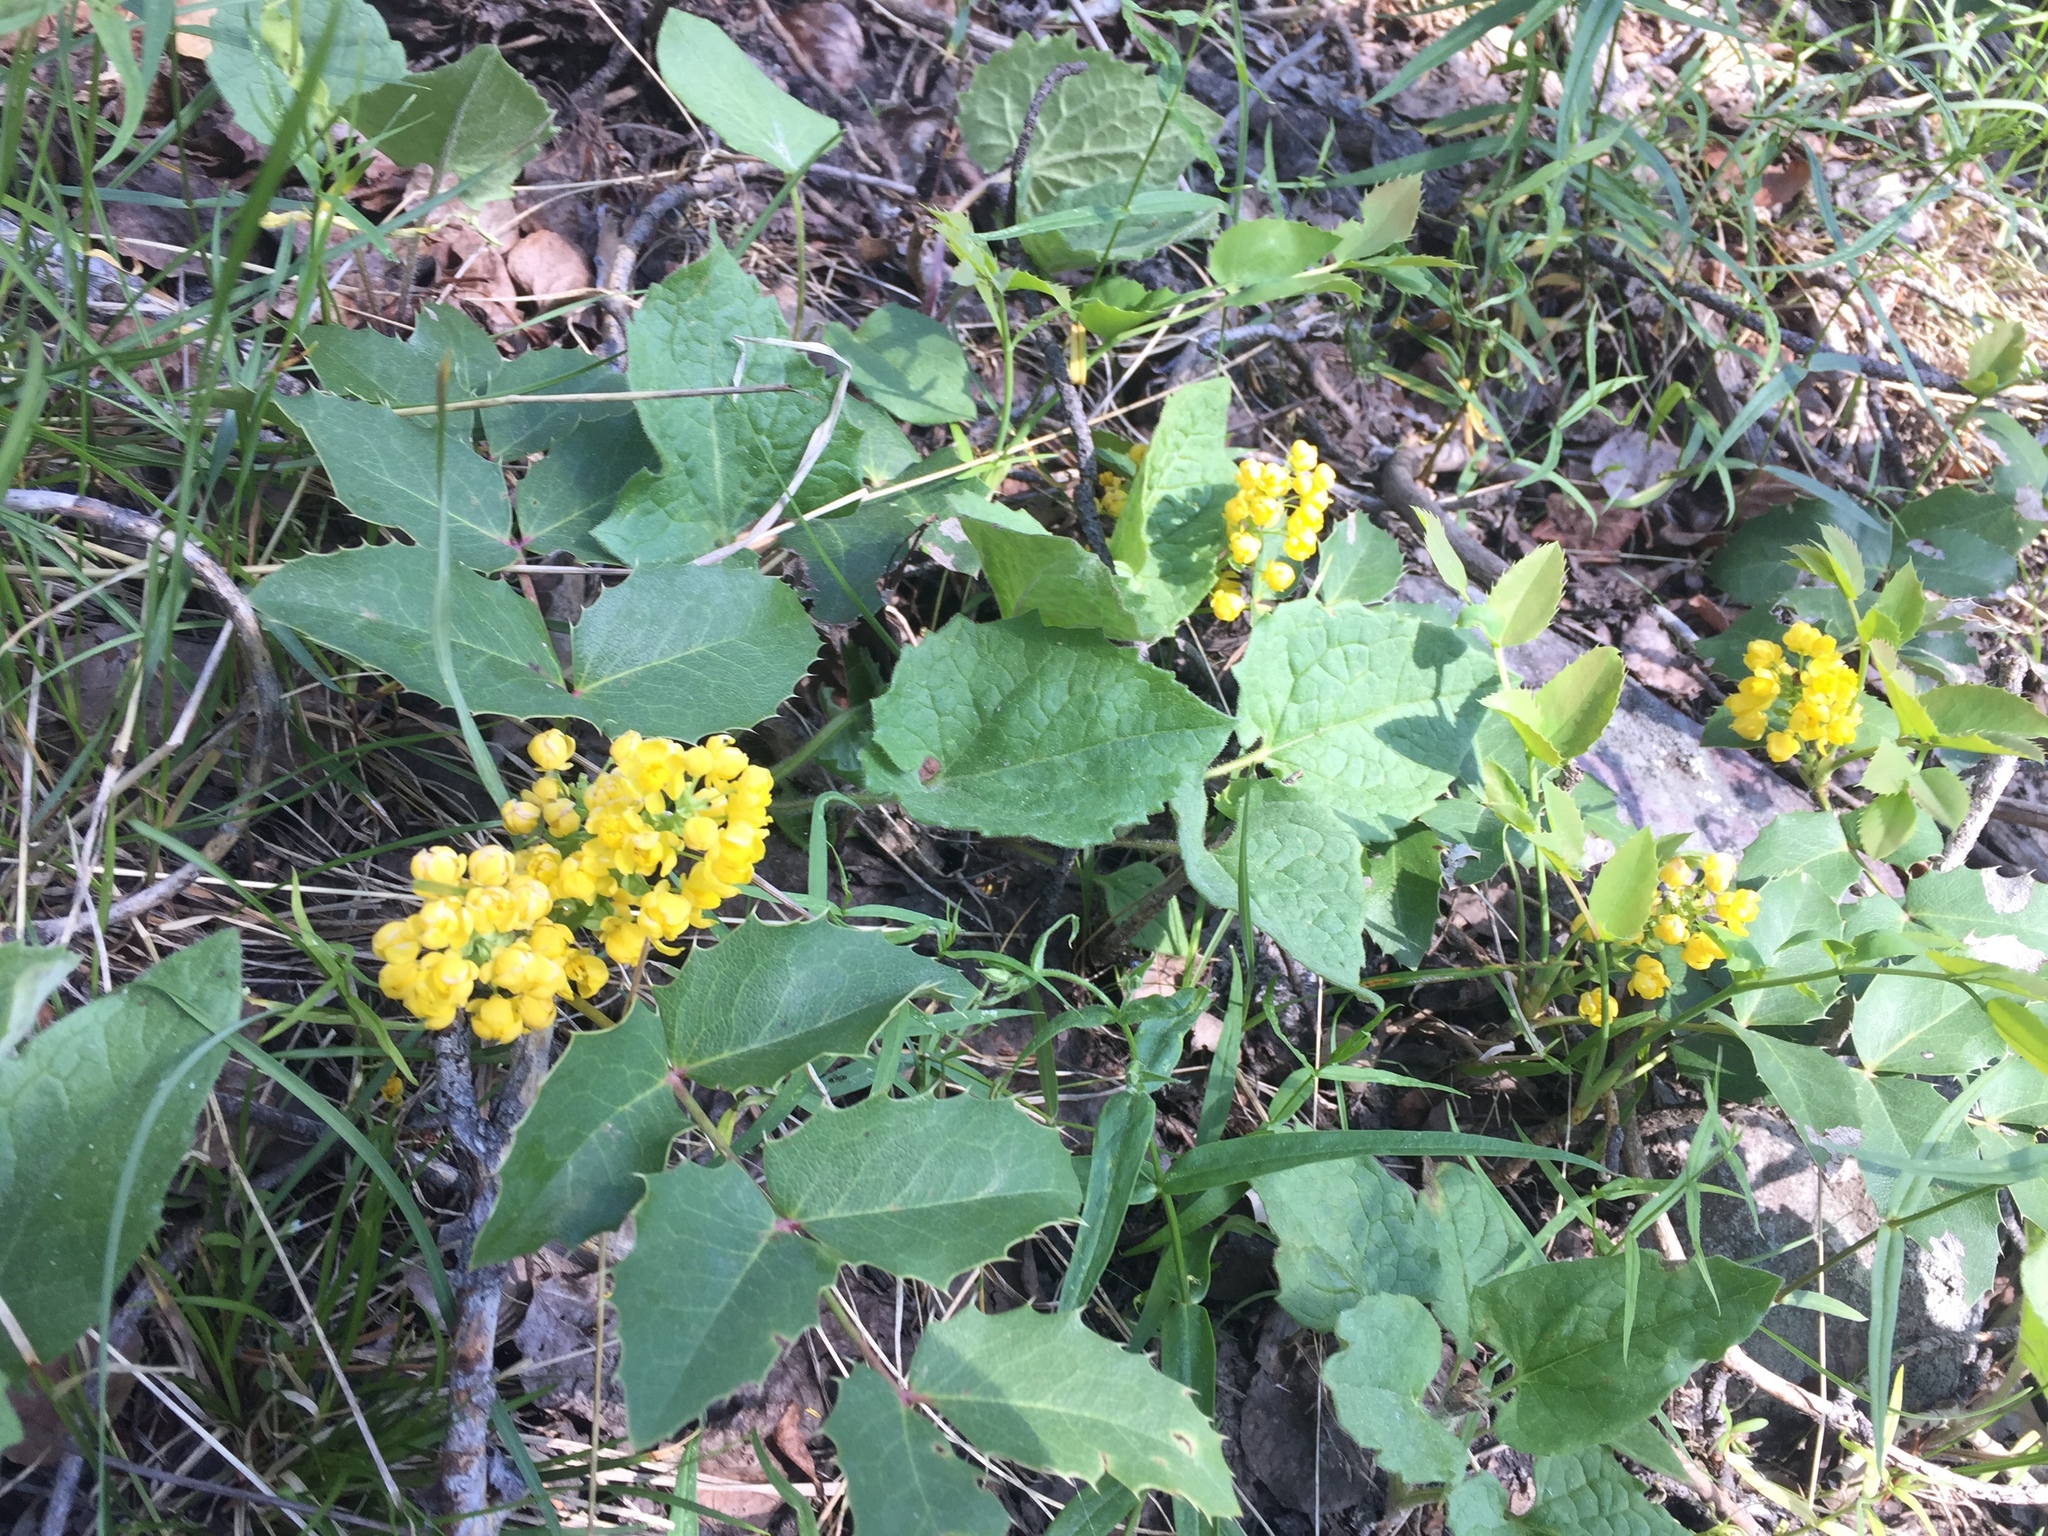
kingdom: Plantae
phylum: Tracheophyta
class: Magnoliopsida
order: Ranunculales
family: Berberidaceae
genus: Mahonia
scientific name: Mahonia repens
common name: Creeping oregon-grape
